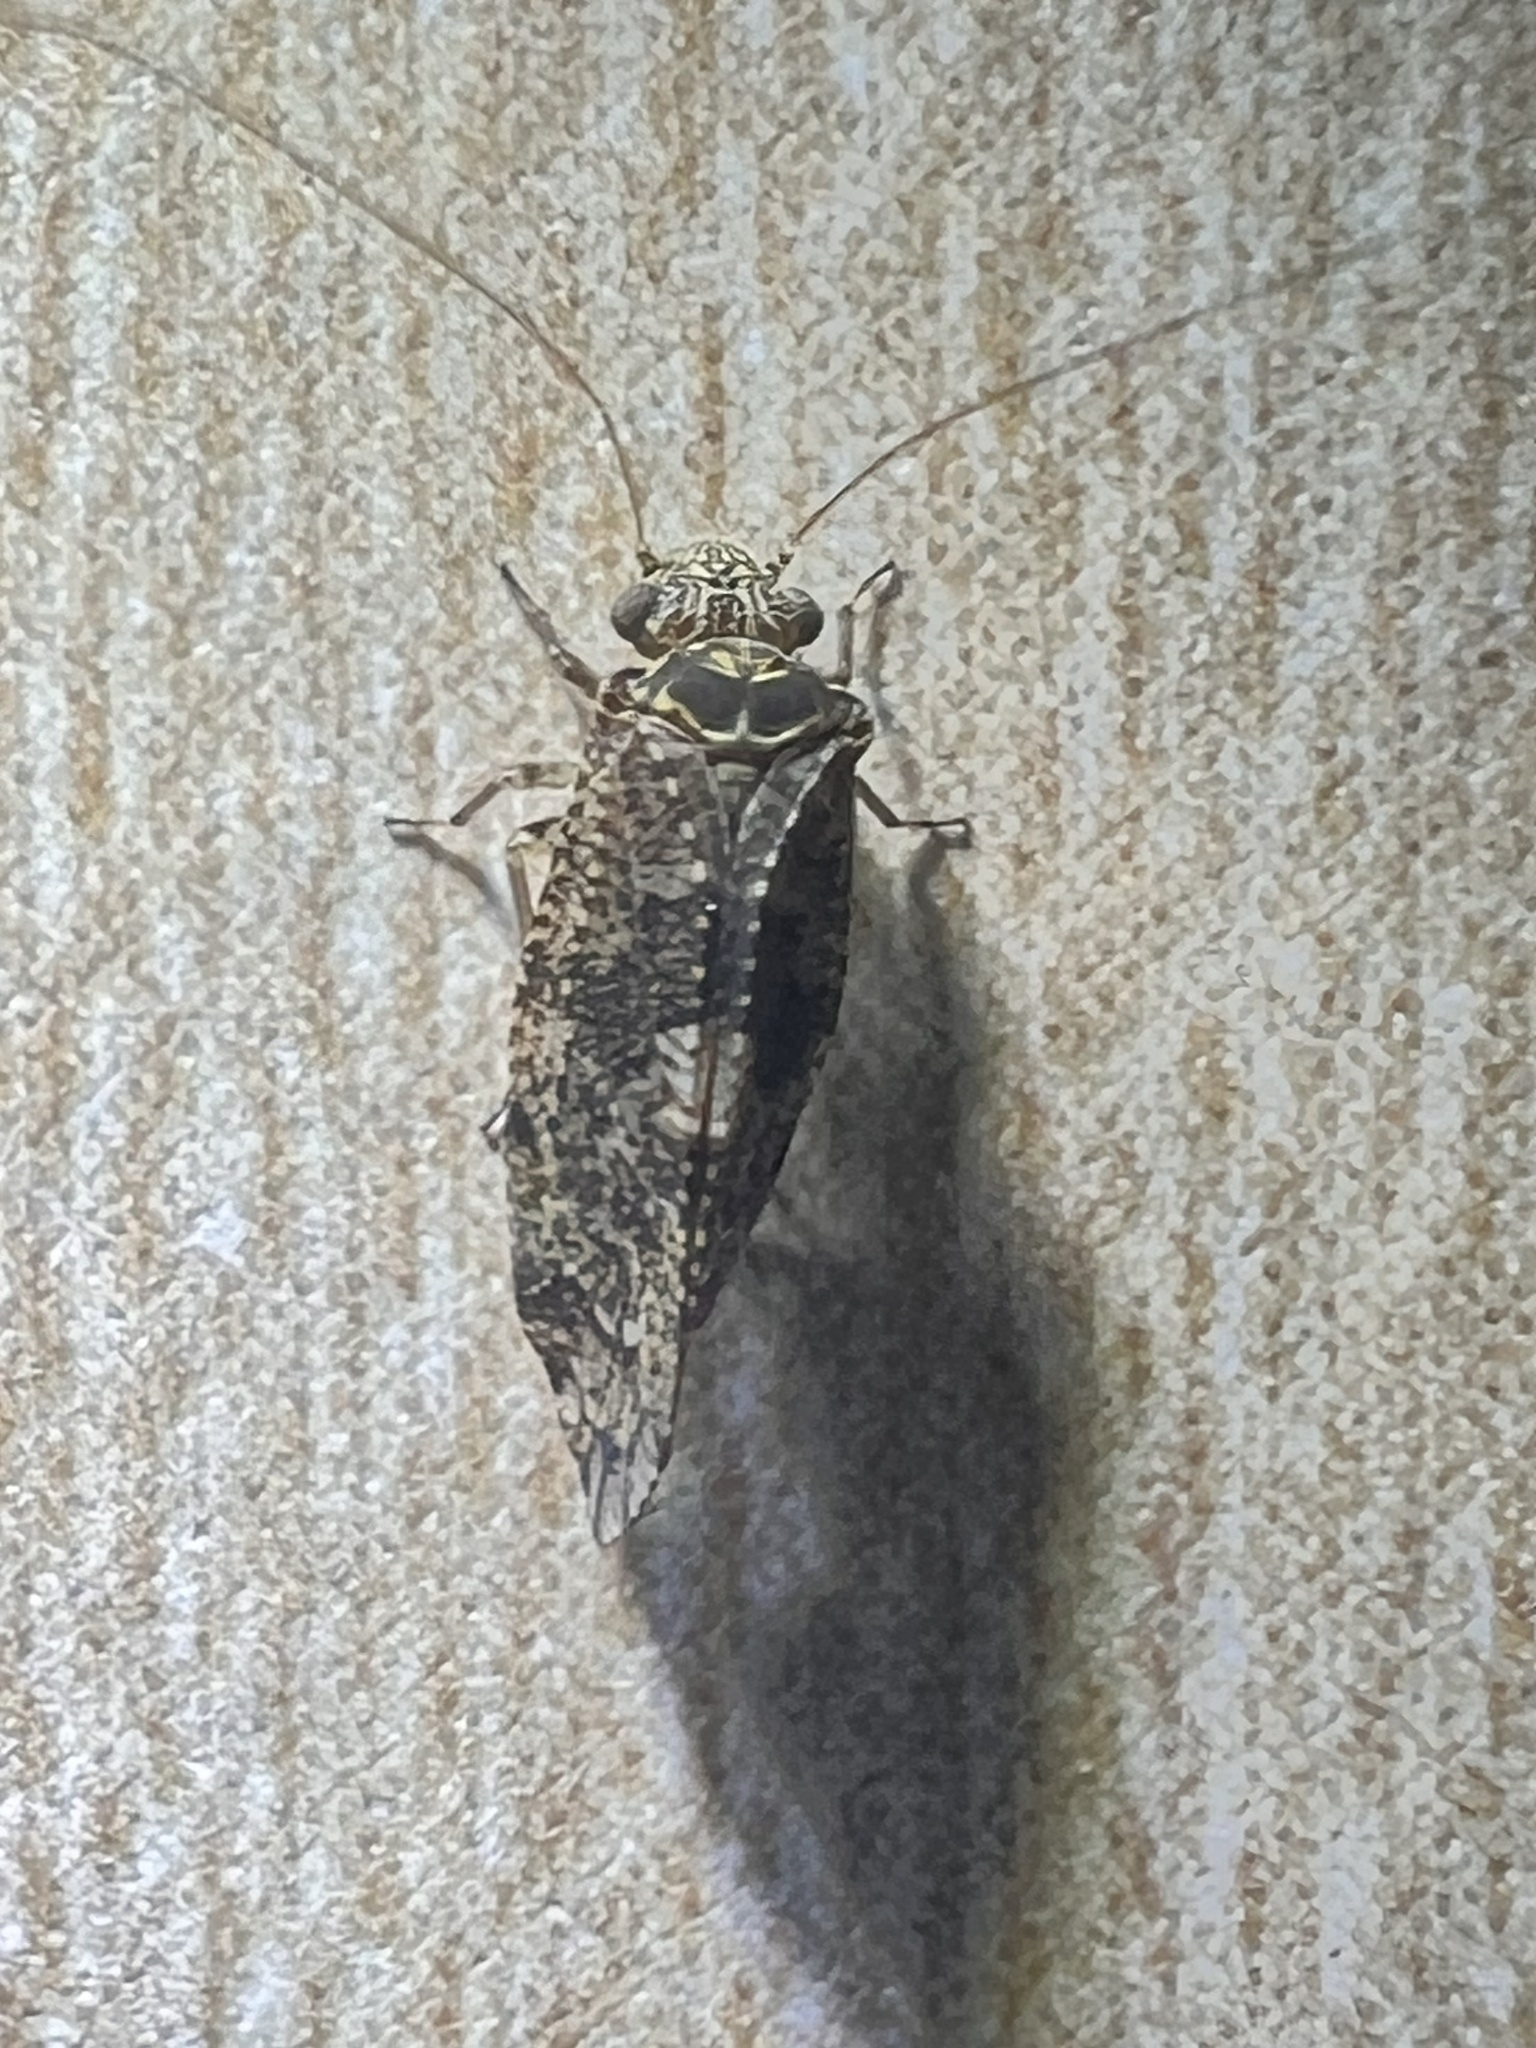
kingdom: Animalia
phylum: Arthropoda
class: Insecta
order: Psocodea
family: Myopsocidae
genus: Nimbopsocus
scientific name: Nimbopsocus australis
